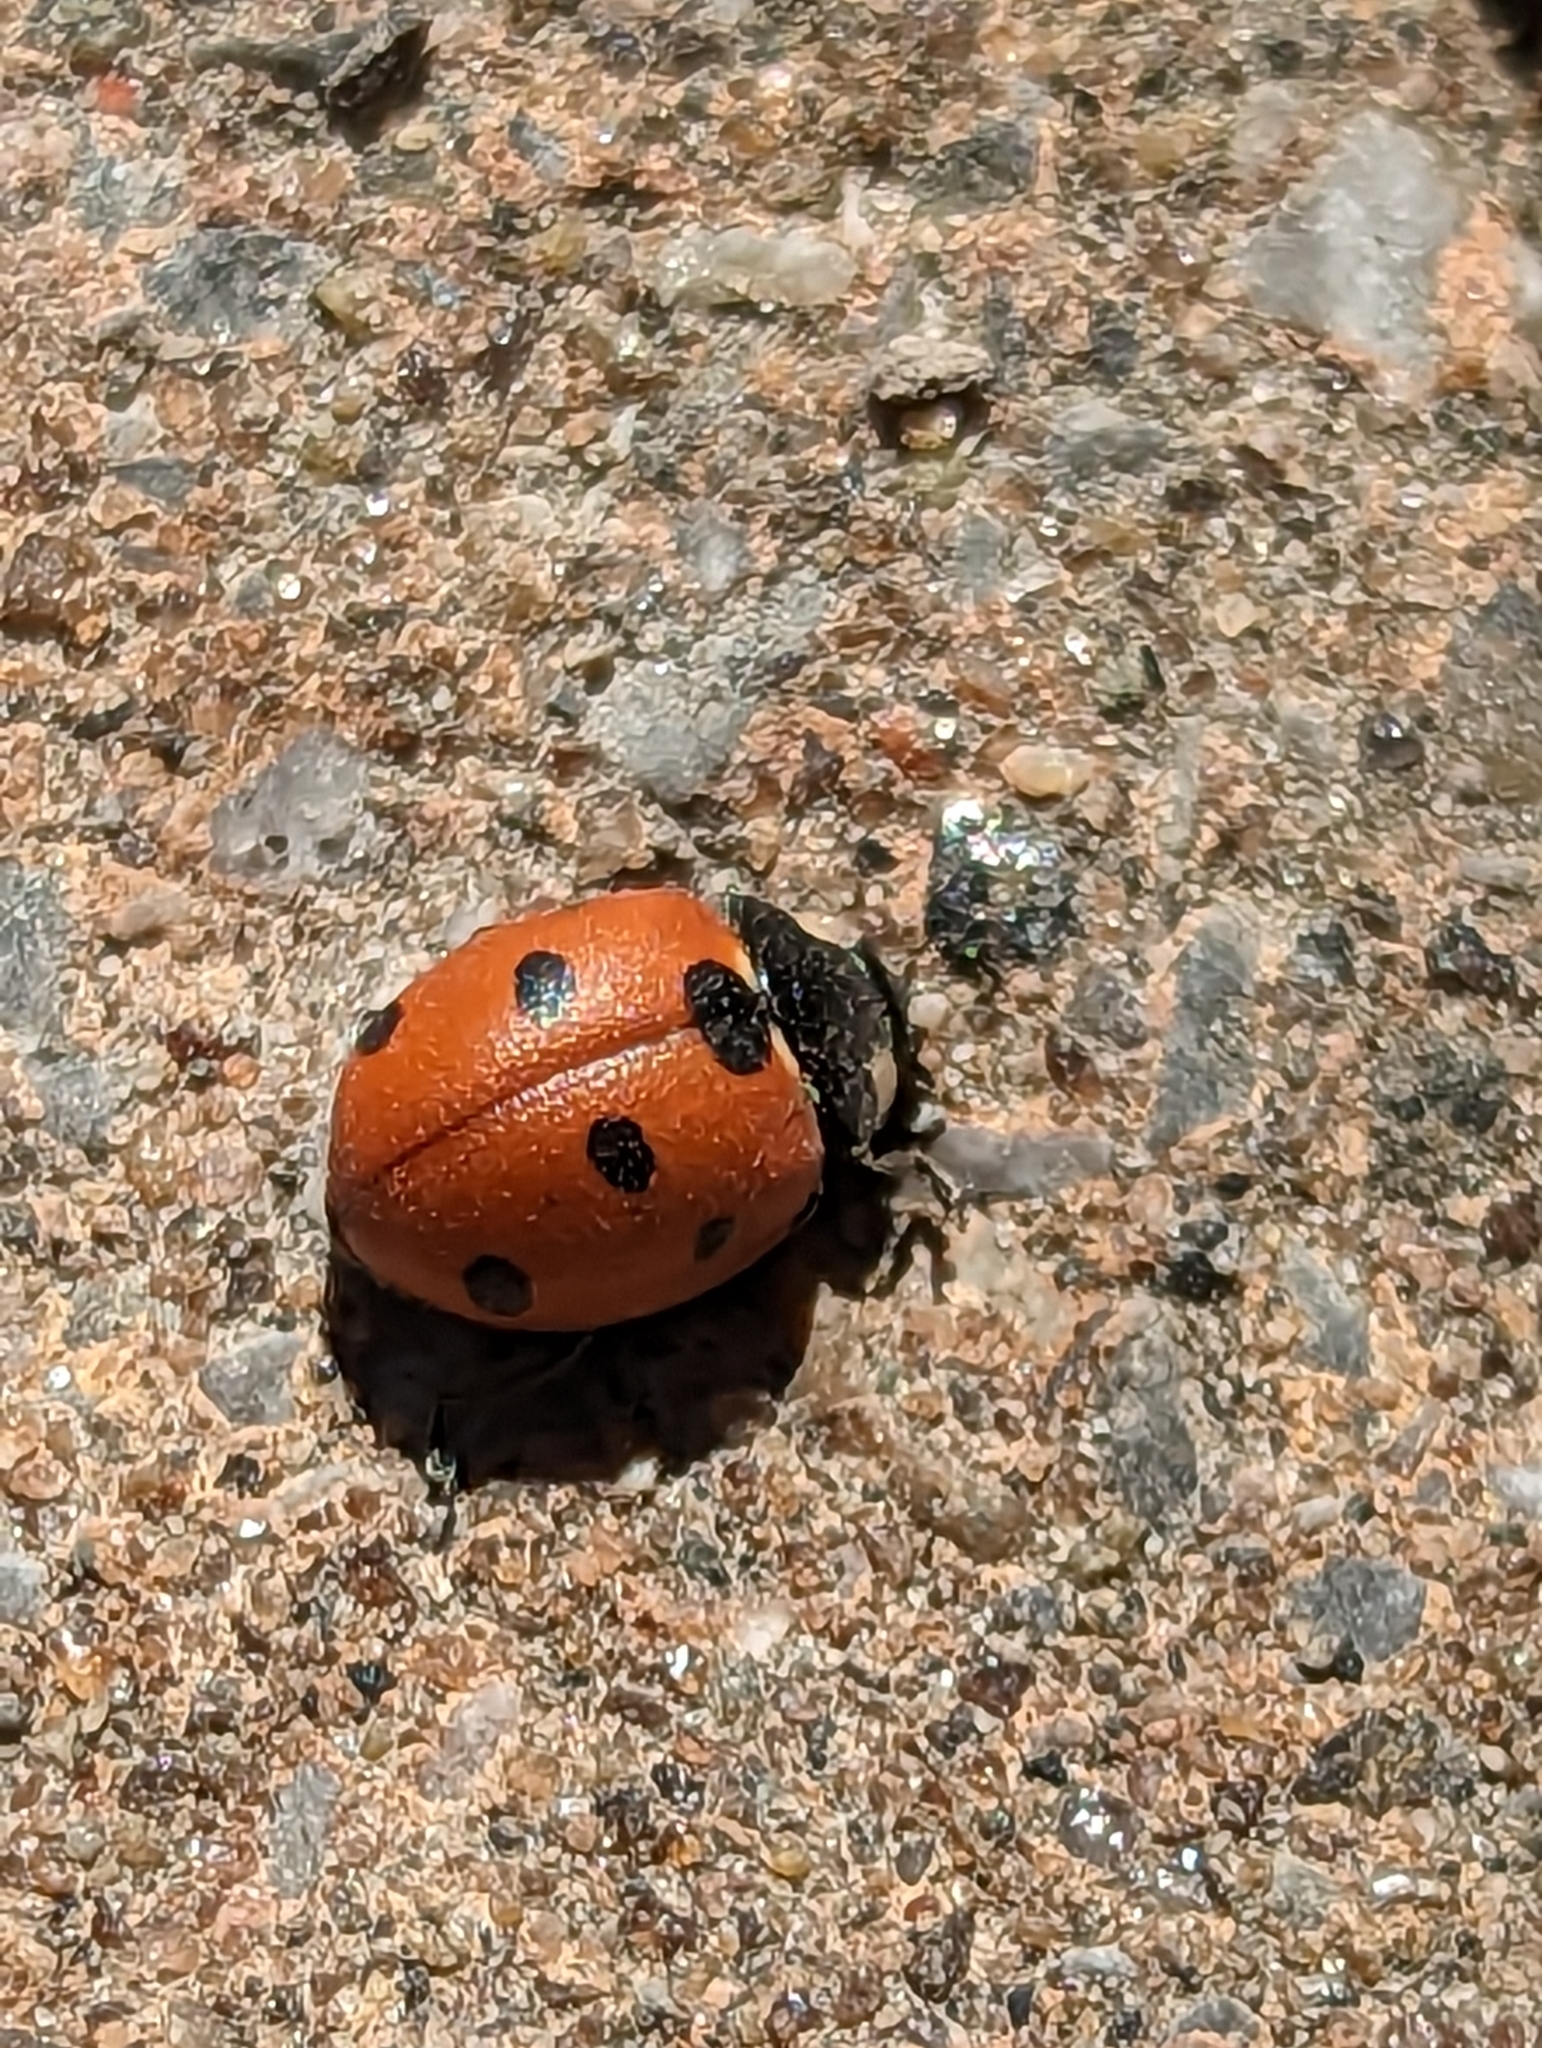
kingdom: Animalia
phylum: Arthropoda
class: Insecta
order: Coleoptera
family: Coccinellidae
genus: Coccinella
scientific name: Coccinella septempunctata
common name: Sevenspotted lady beetle
